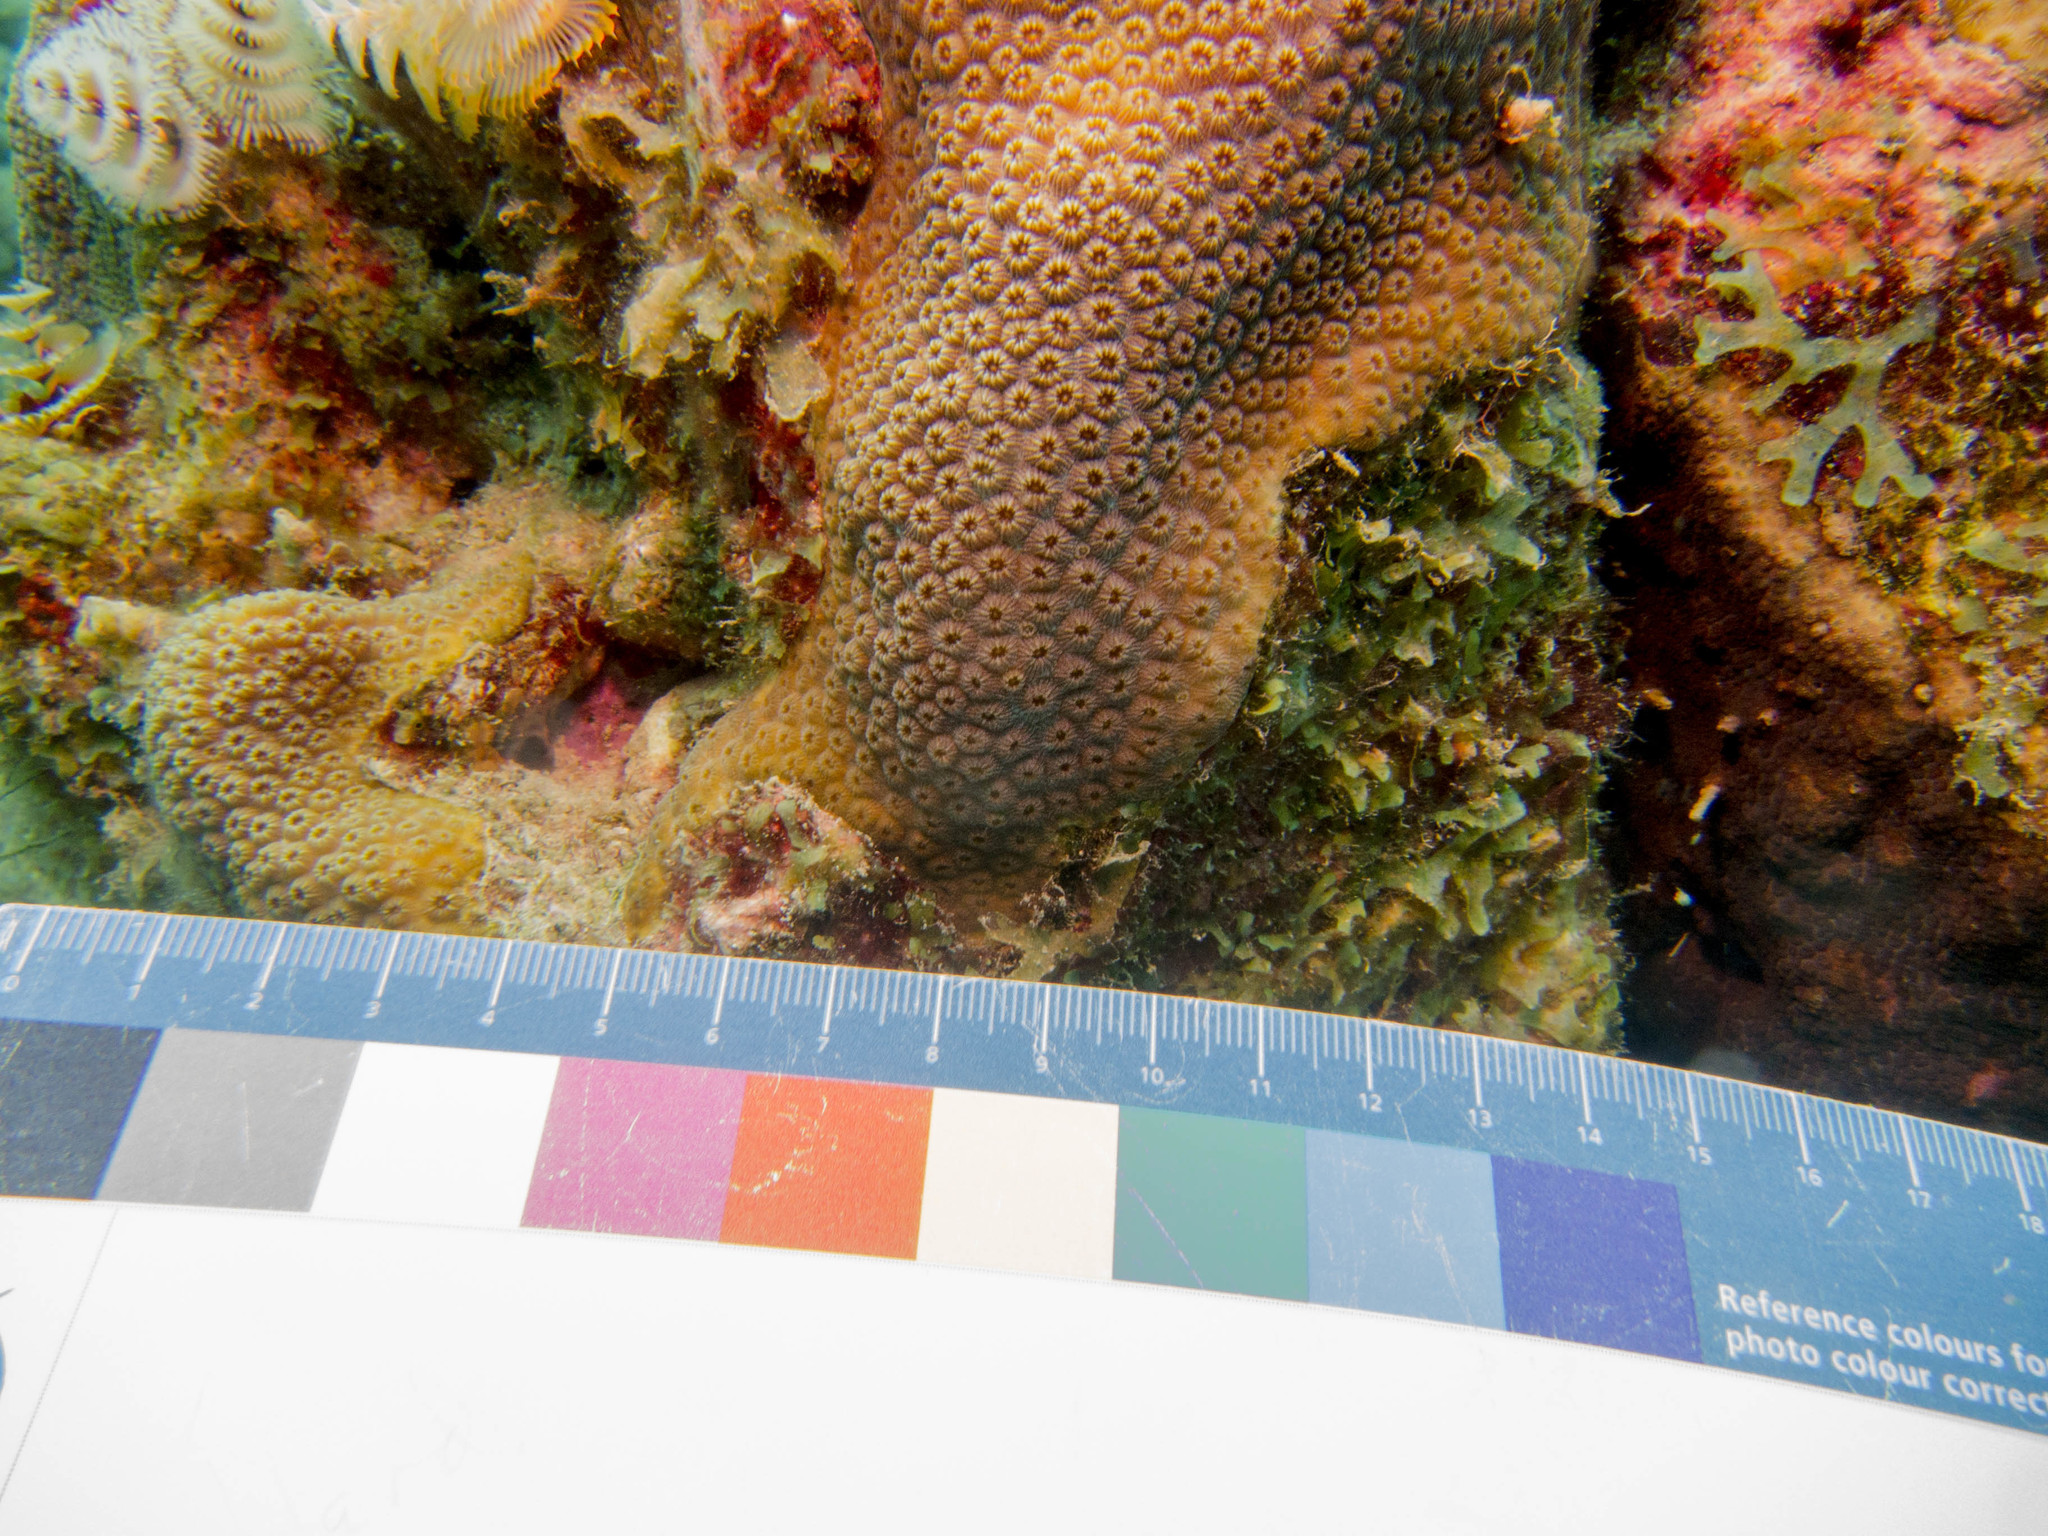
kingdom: Animalia
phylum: Cnidaria
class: Anthozoa
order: Scleractinia
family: Merulinidae
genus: Orbicella
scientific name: Orbicella annularis
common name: Boulder star coral
